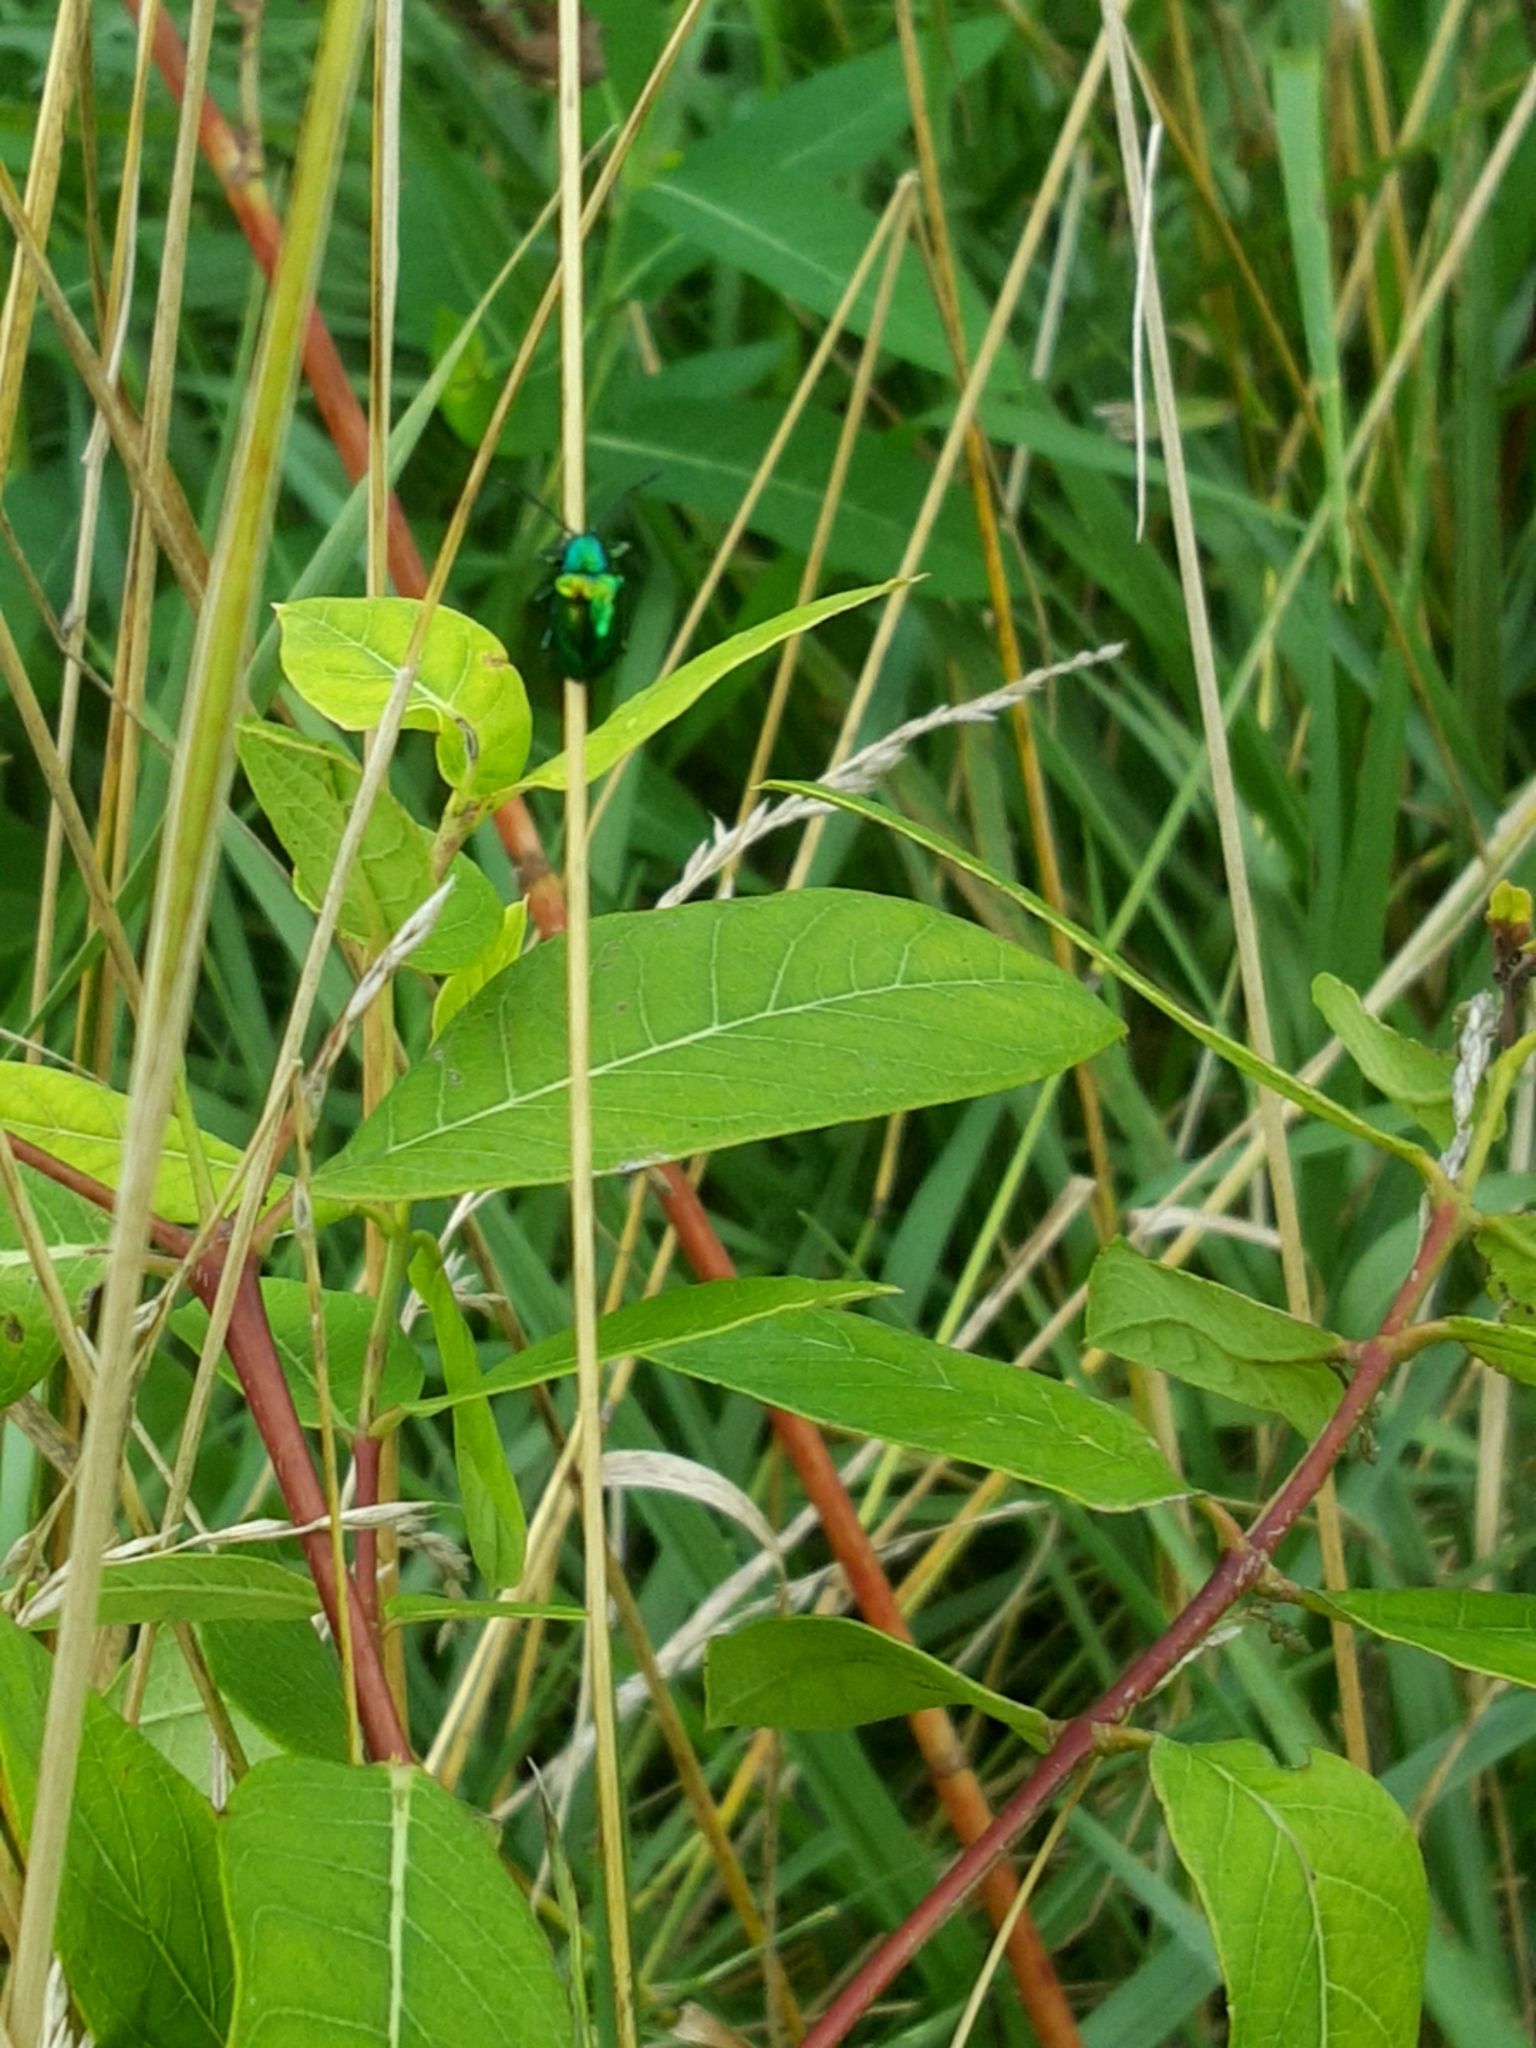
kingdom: Animalia
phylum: Arthropoda
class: Insecta
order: Coleoptera
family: Chrysomelidae
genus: Chrysochus
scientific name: Chrysochus auratus
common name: Dogbane leaf beetle
